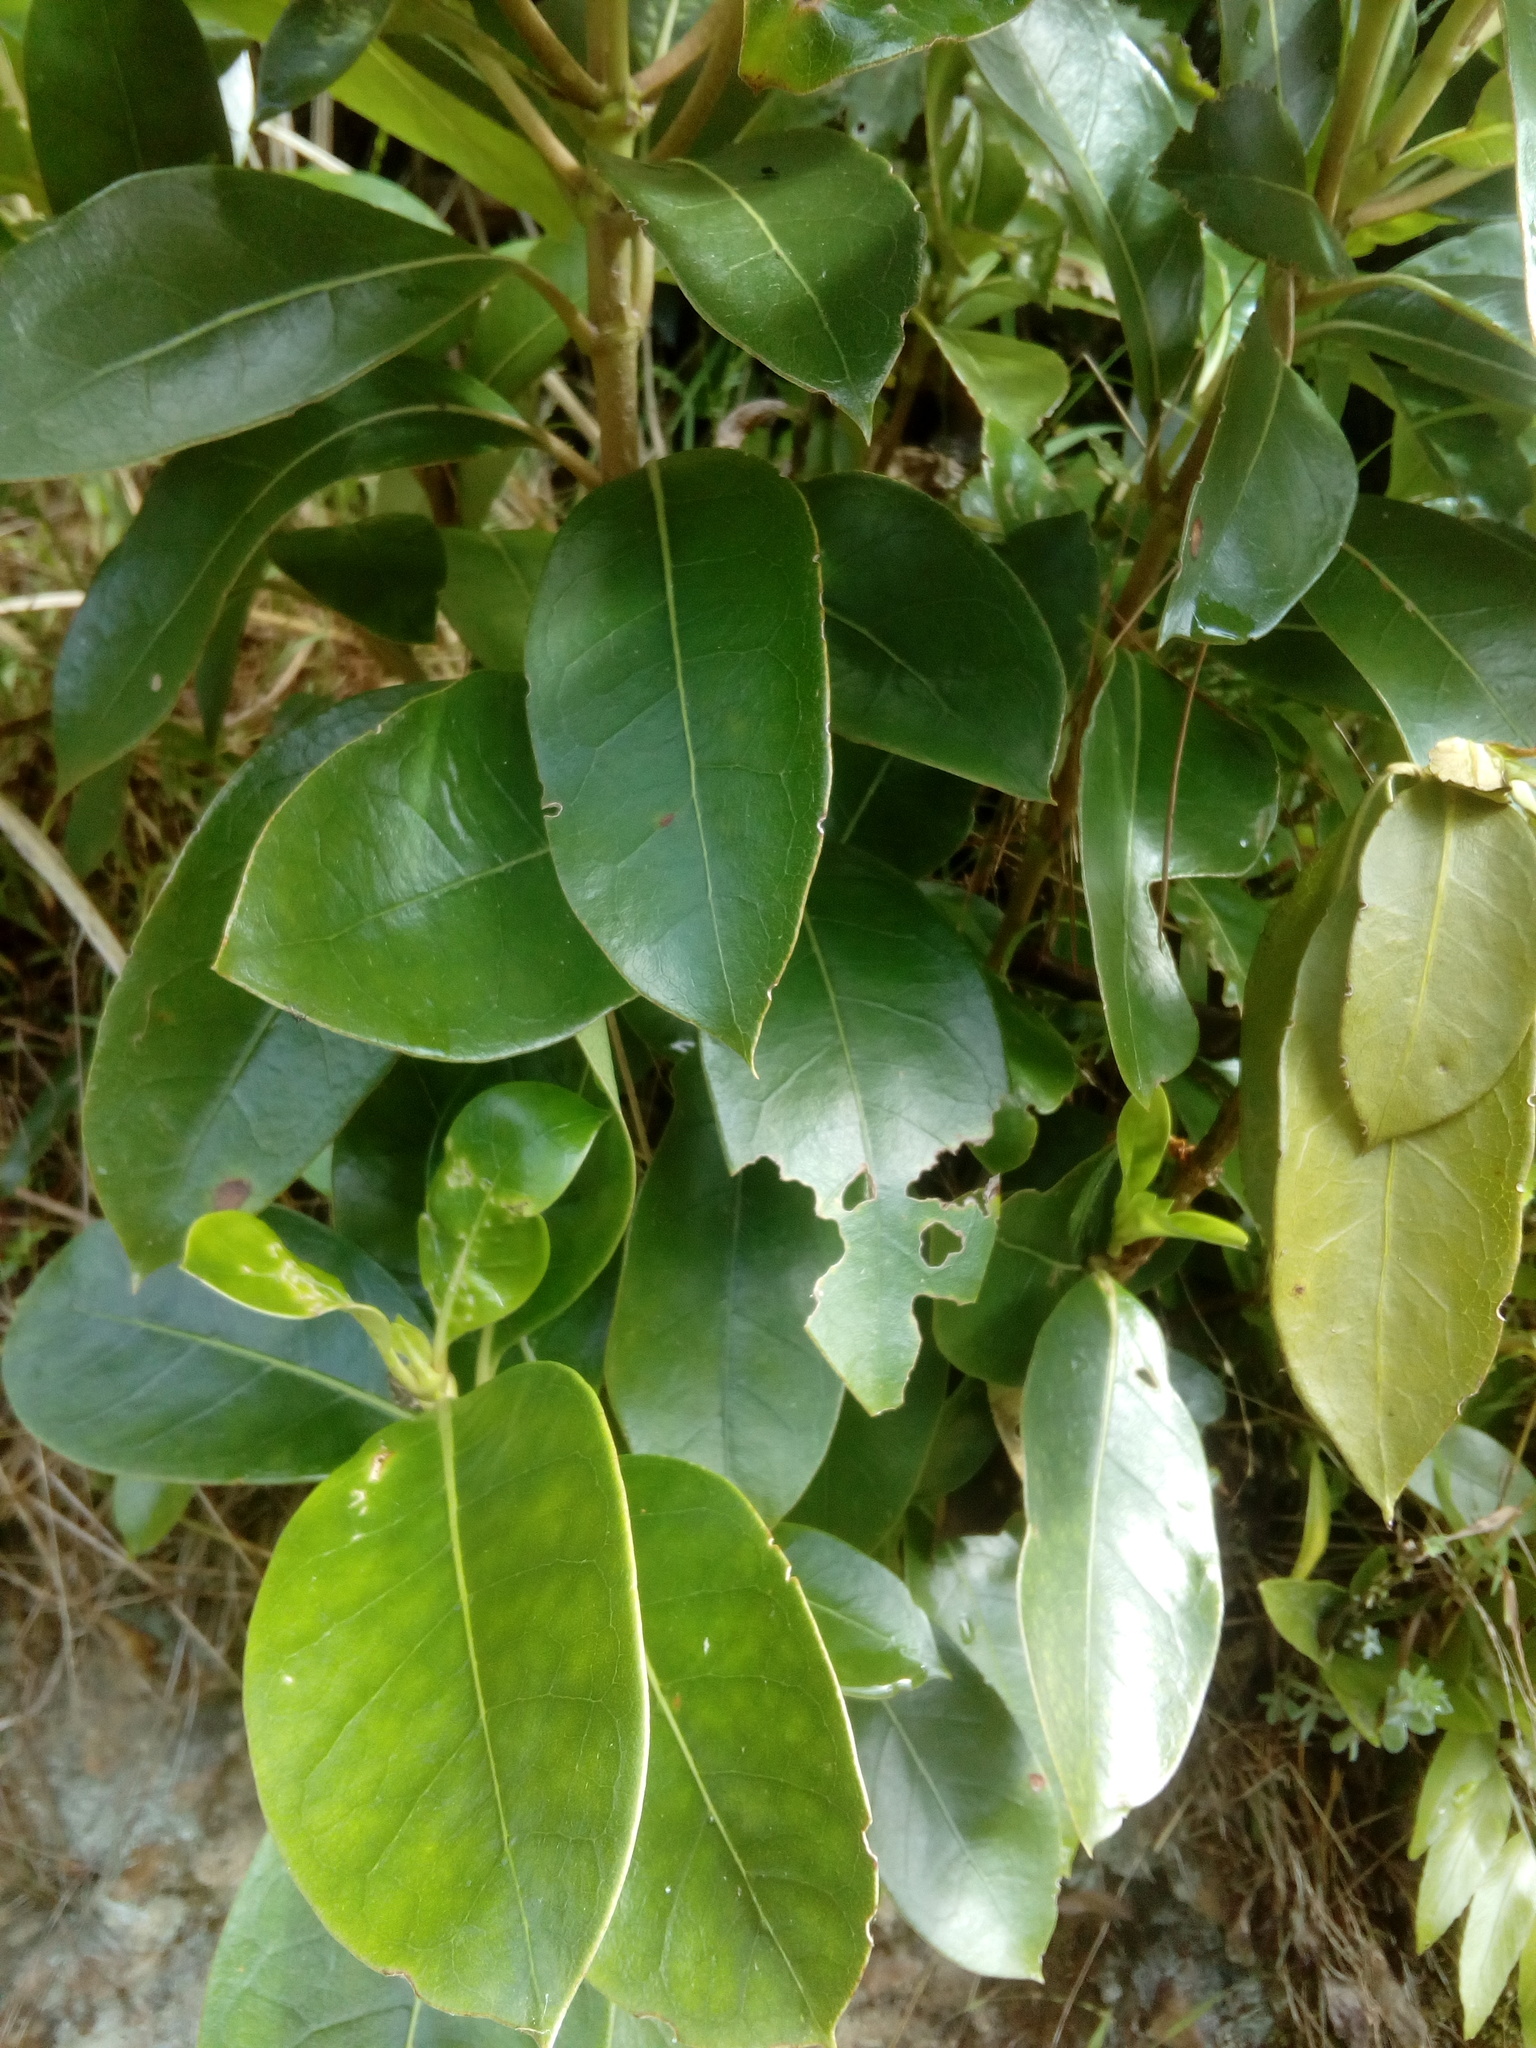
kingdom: Plantae
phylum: Tracheophyta
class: Magnoliopsida
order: Gentianales
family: Rubiaceae
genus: Coprosma
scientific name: Coprosma lucida
